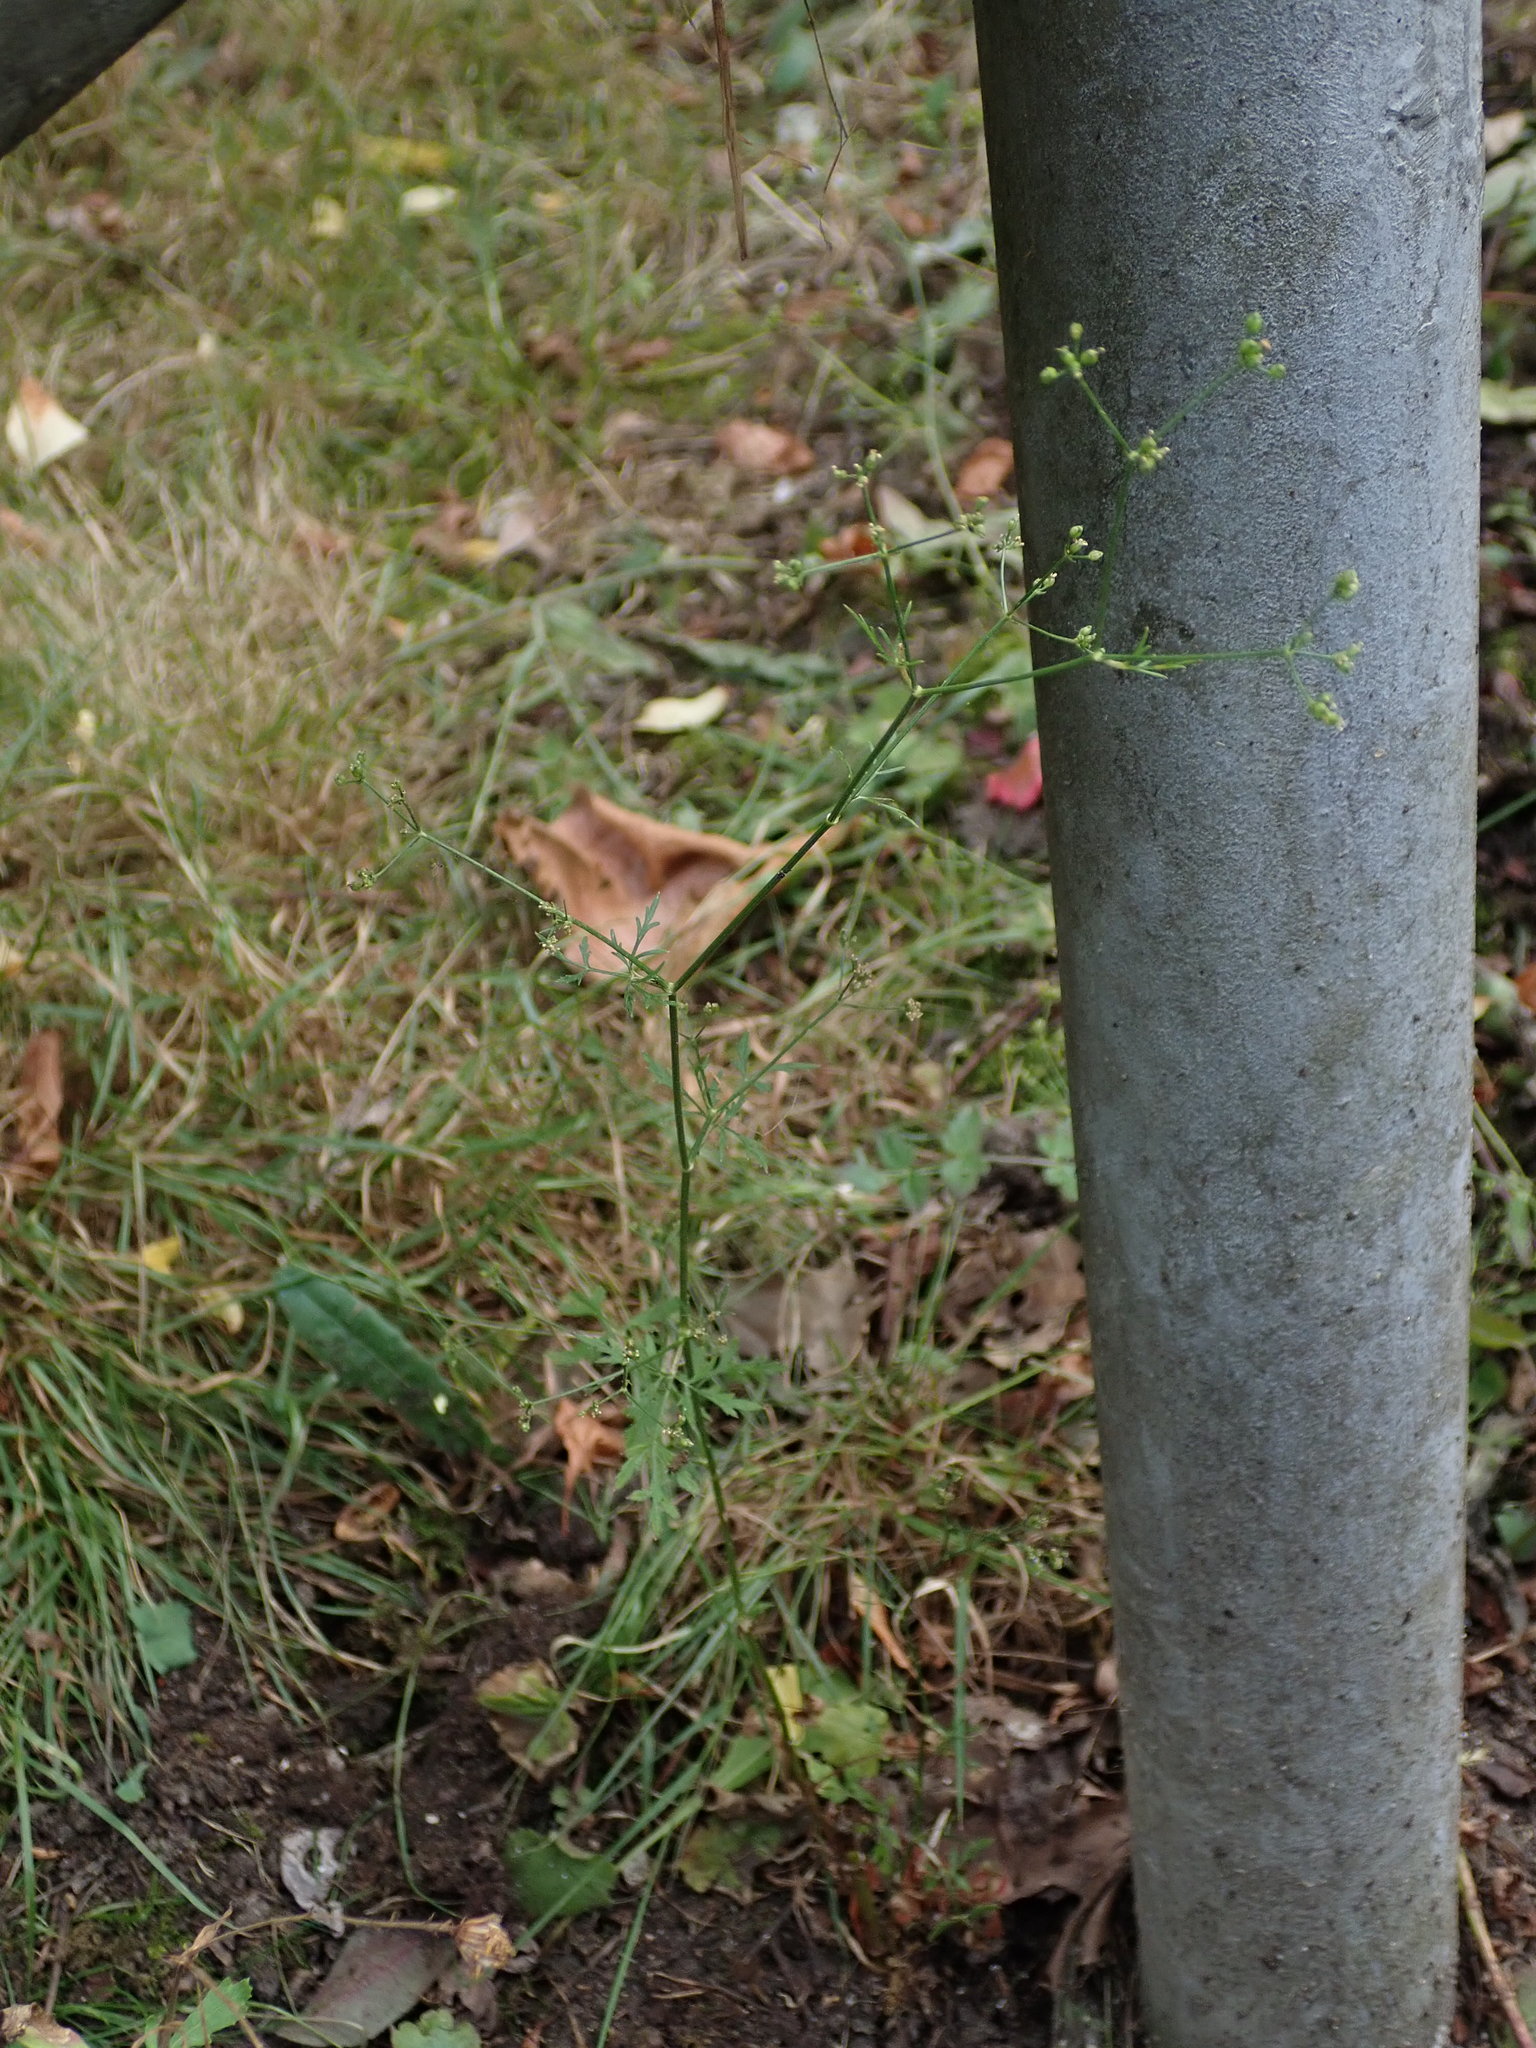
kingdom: Plantae
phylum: Tracheophyta
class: Magnoliopsida
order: Apiales
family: Apiaceae
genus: Sison
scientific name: Sison amomum
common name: Stone-parsley
